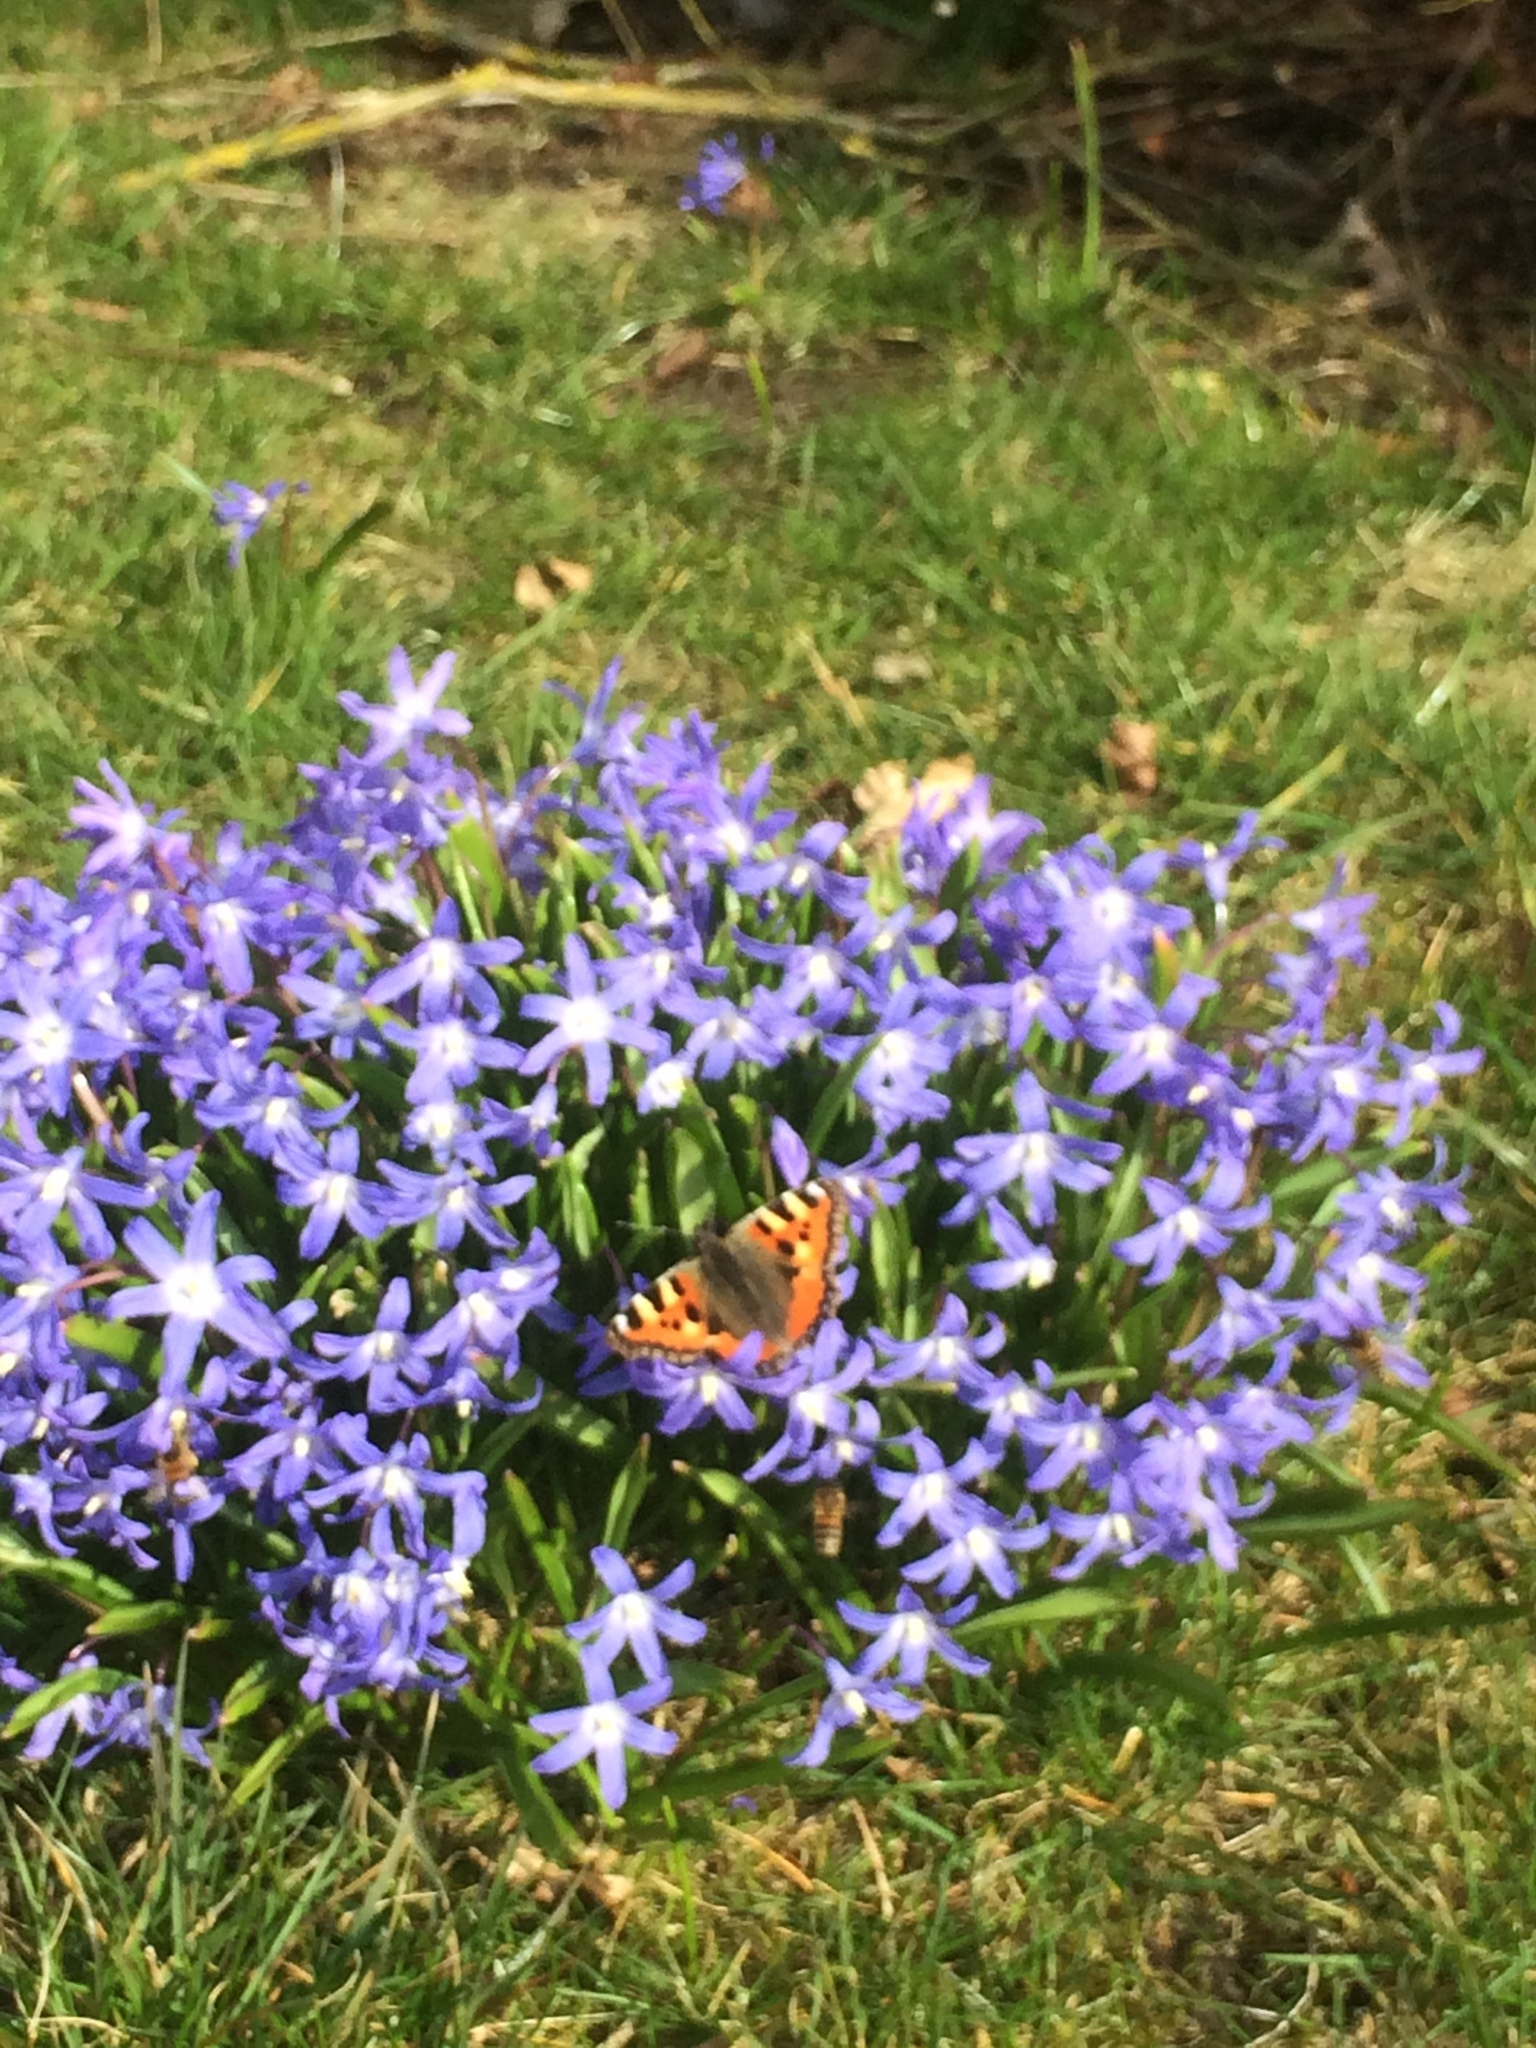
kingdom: Animalia
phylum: Arthropoda
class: Insecta
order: Lepidoptera
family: Nymphalidae
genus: Aglais
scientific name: Aglais urticae
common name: Small tortoiseshell
